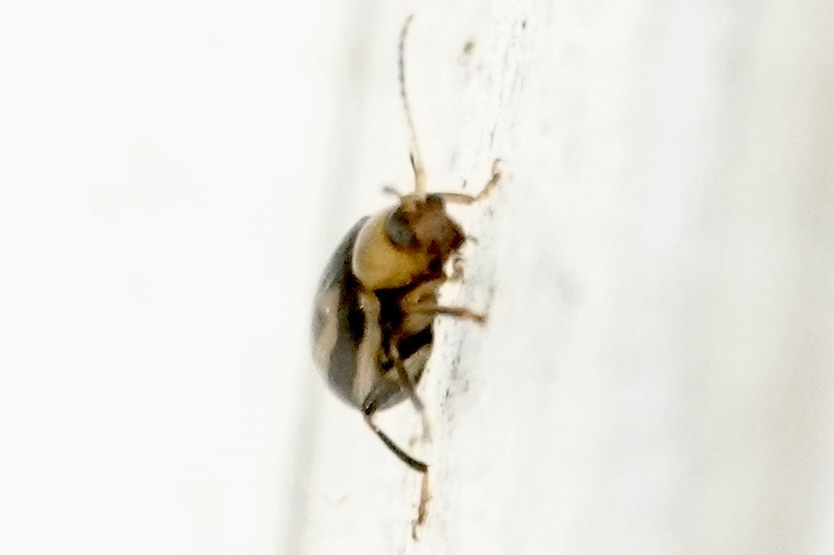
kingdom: Animalia
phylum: Arthropoda
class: Insecta
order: Coleoptera
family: Chrysomelidae
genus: Cerotoma
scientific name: Cerotoma trifurcata
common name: Bean leaf beetle
